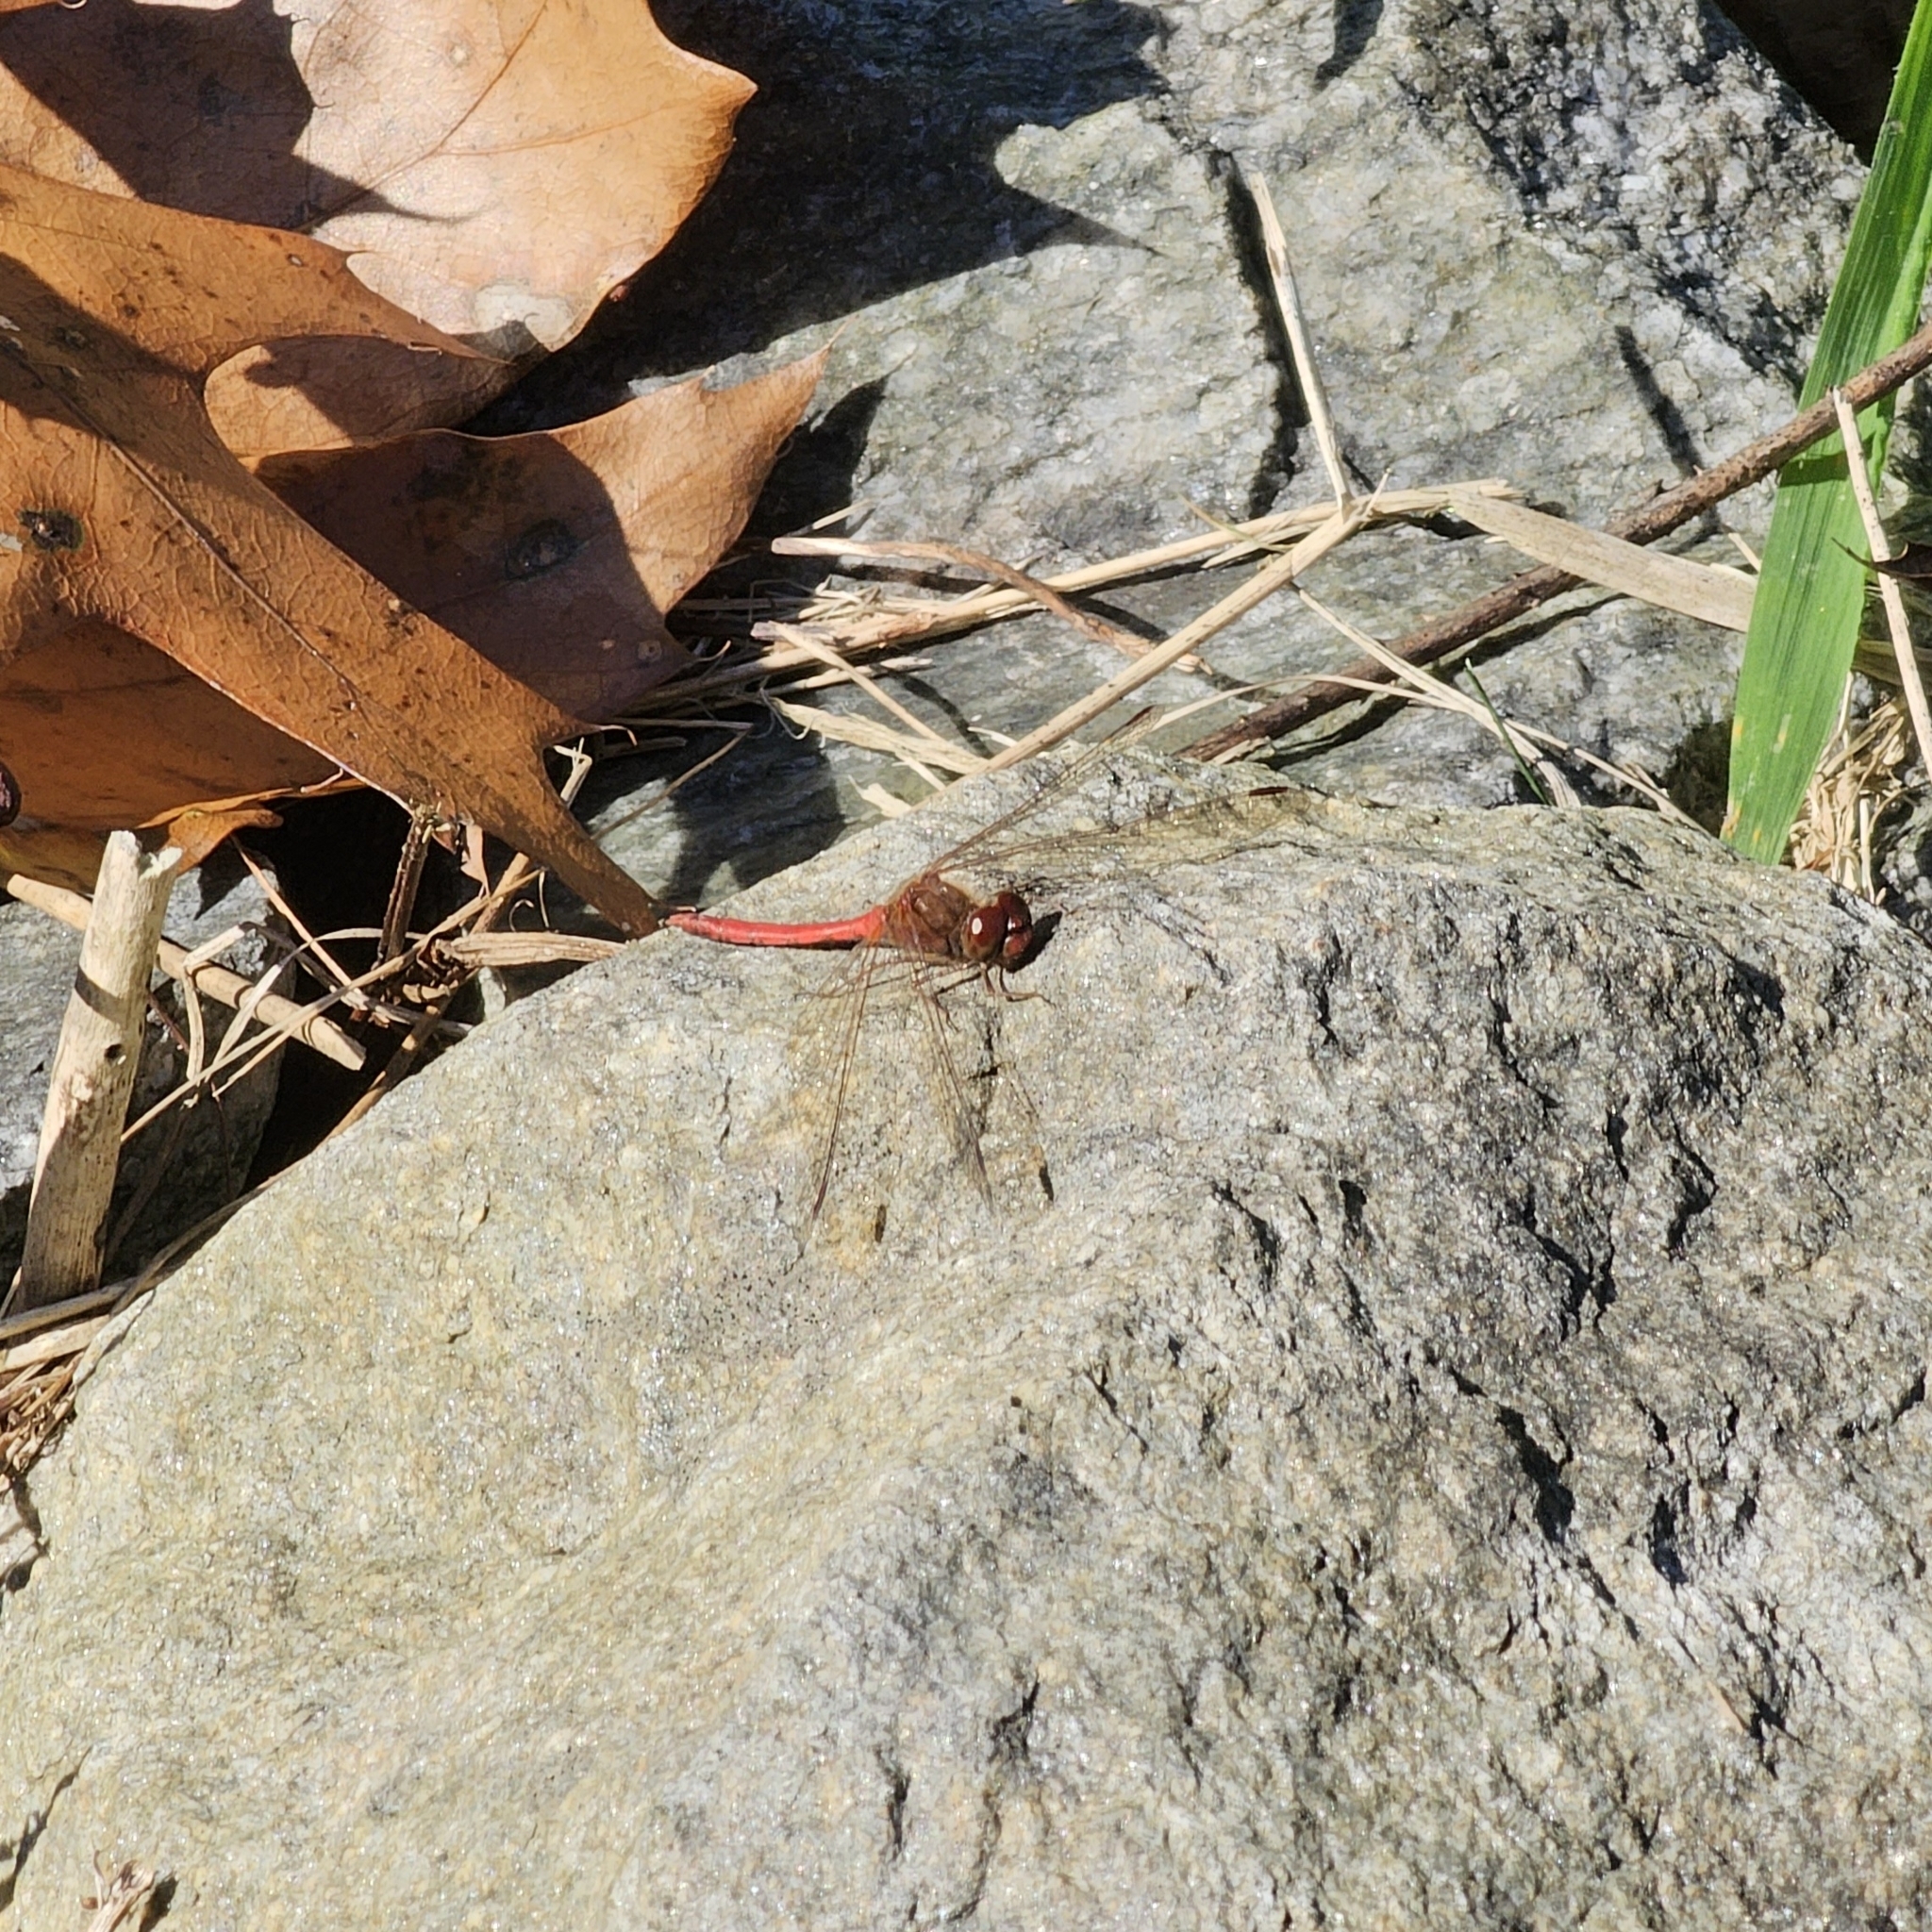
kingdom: Animalia
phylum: Arthropoda
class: Insecta
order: Odonata
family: Libellulidae
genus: Sympetrum
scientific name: Sympetrum vicinum
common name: Autumn meadowhawk
